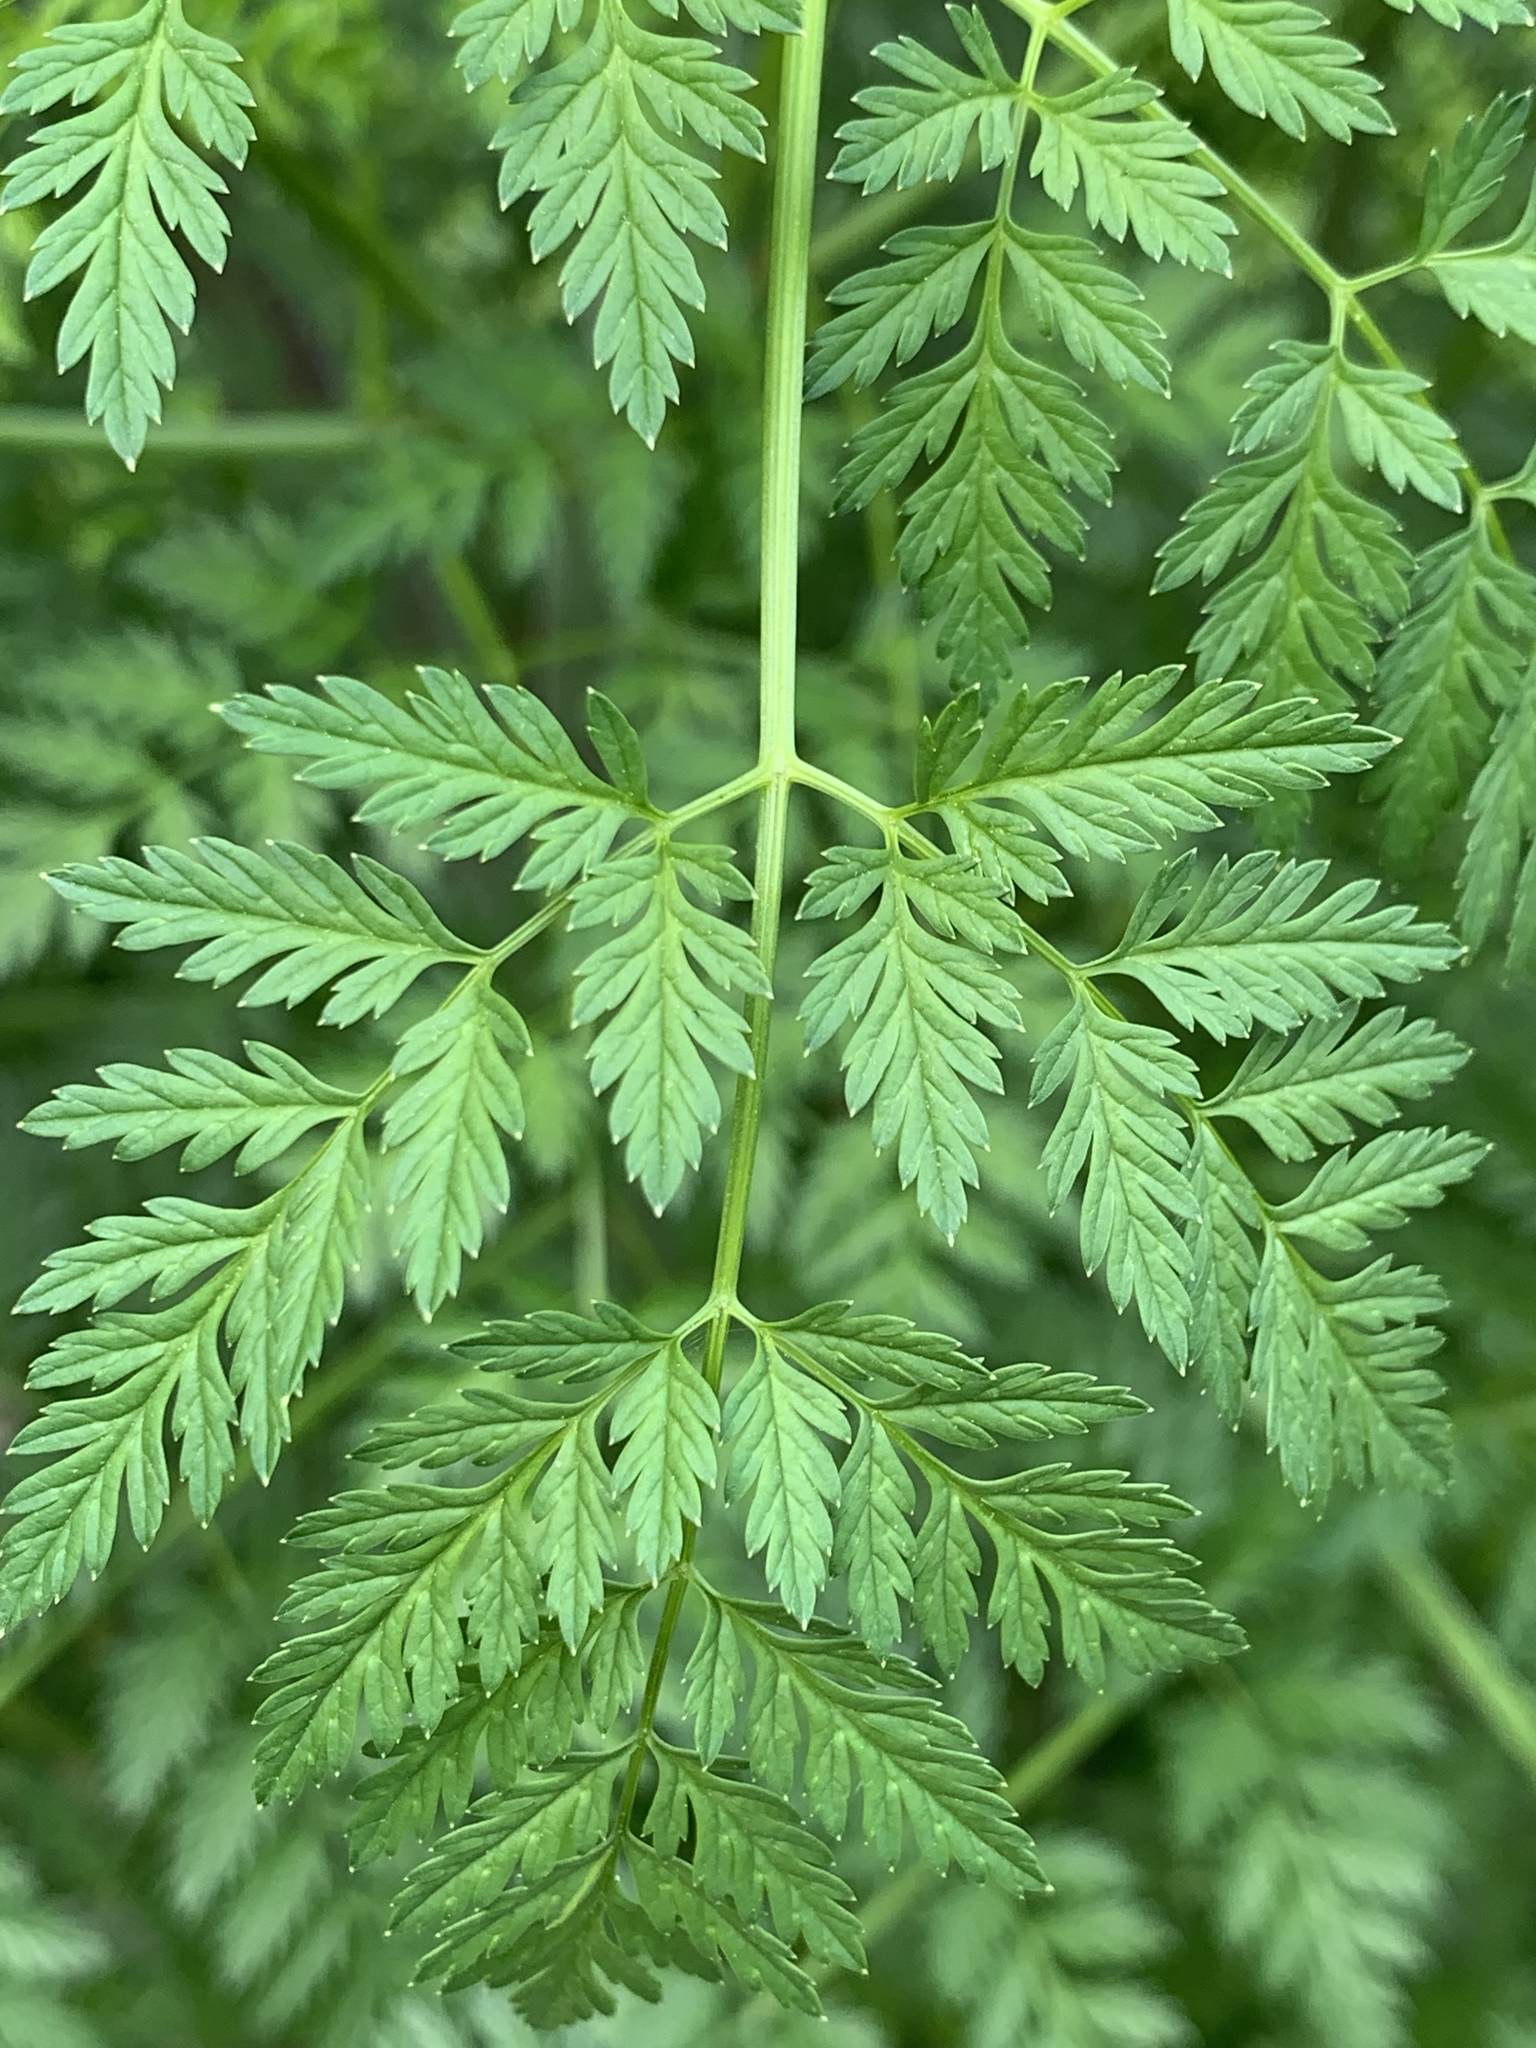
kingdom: Plantae
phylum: Tracheophyta
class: Magnoliopsida
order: Apiales
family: Apiaceae
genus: Conium
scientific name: Conium maculatum
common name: Hemlock
